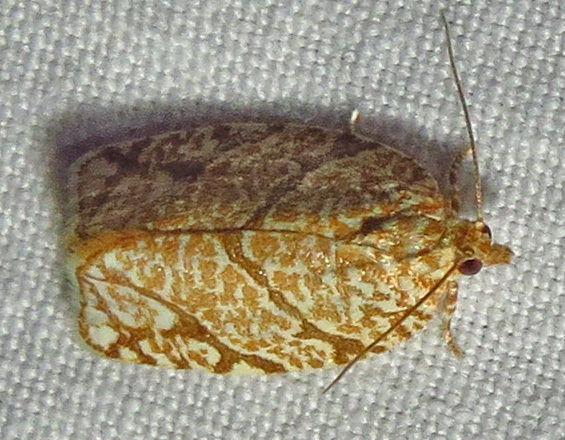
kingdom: Animalia
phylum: Arthropoda
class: Insecta
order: Lepidoptera
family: Tortricidae
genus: Argyrotaenia
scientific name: Argyrotaenia quercifoliana
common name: Yellow-winged oak leafroller moth
